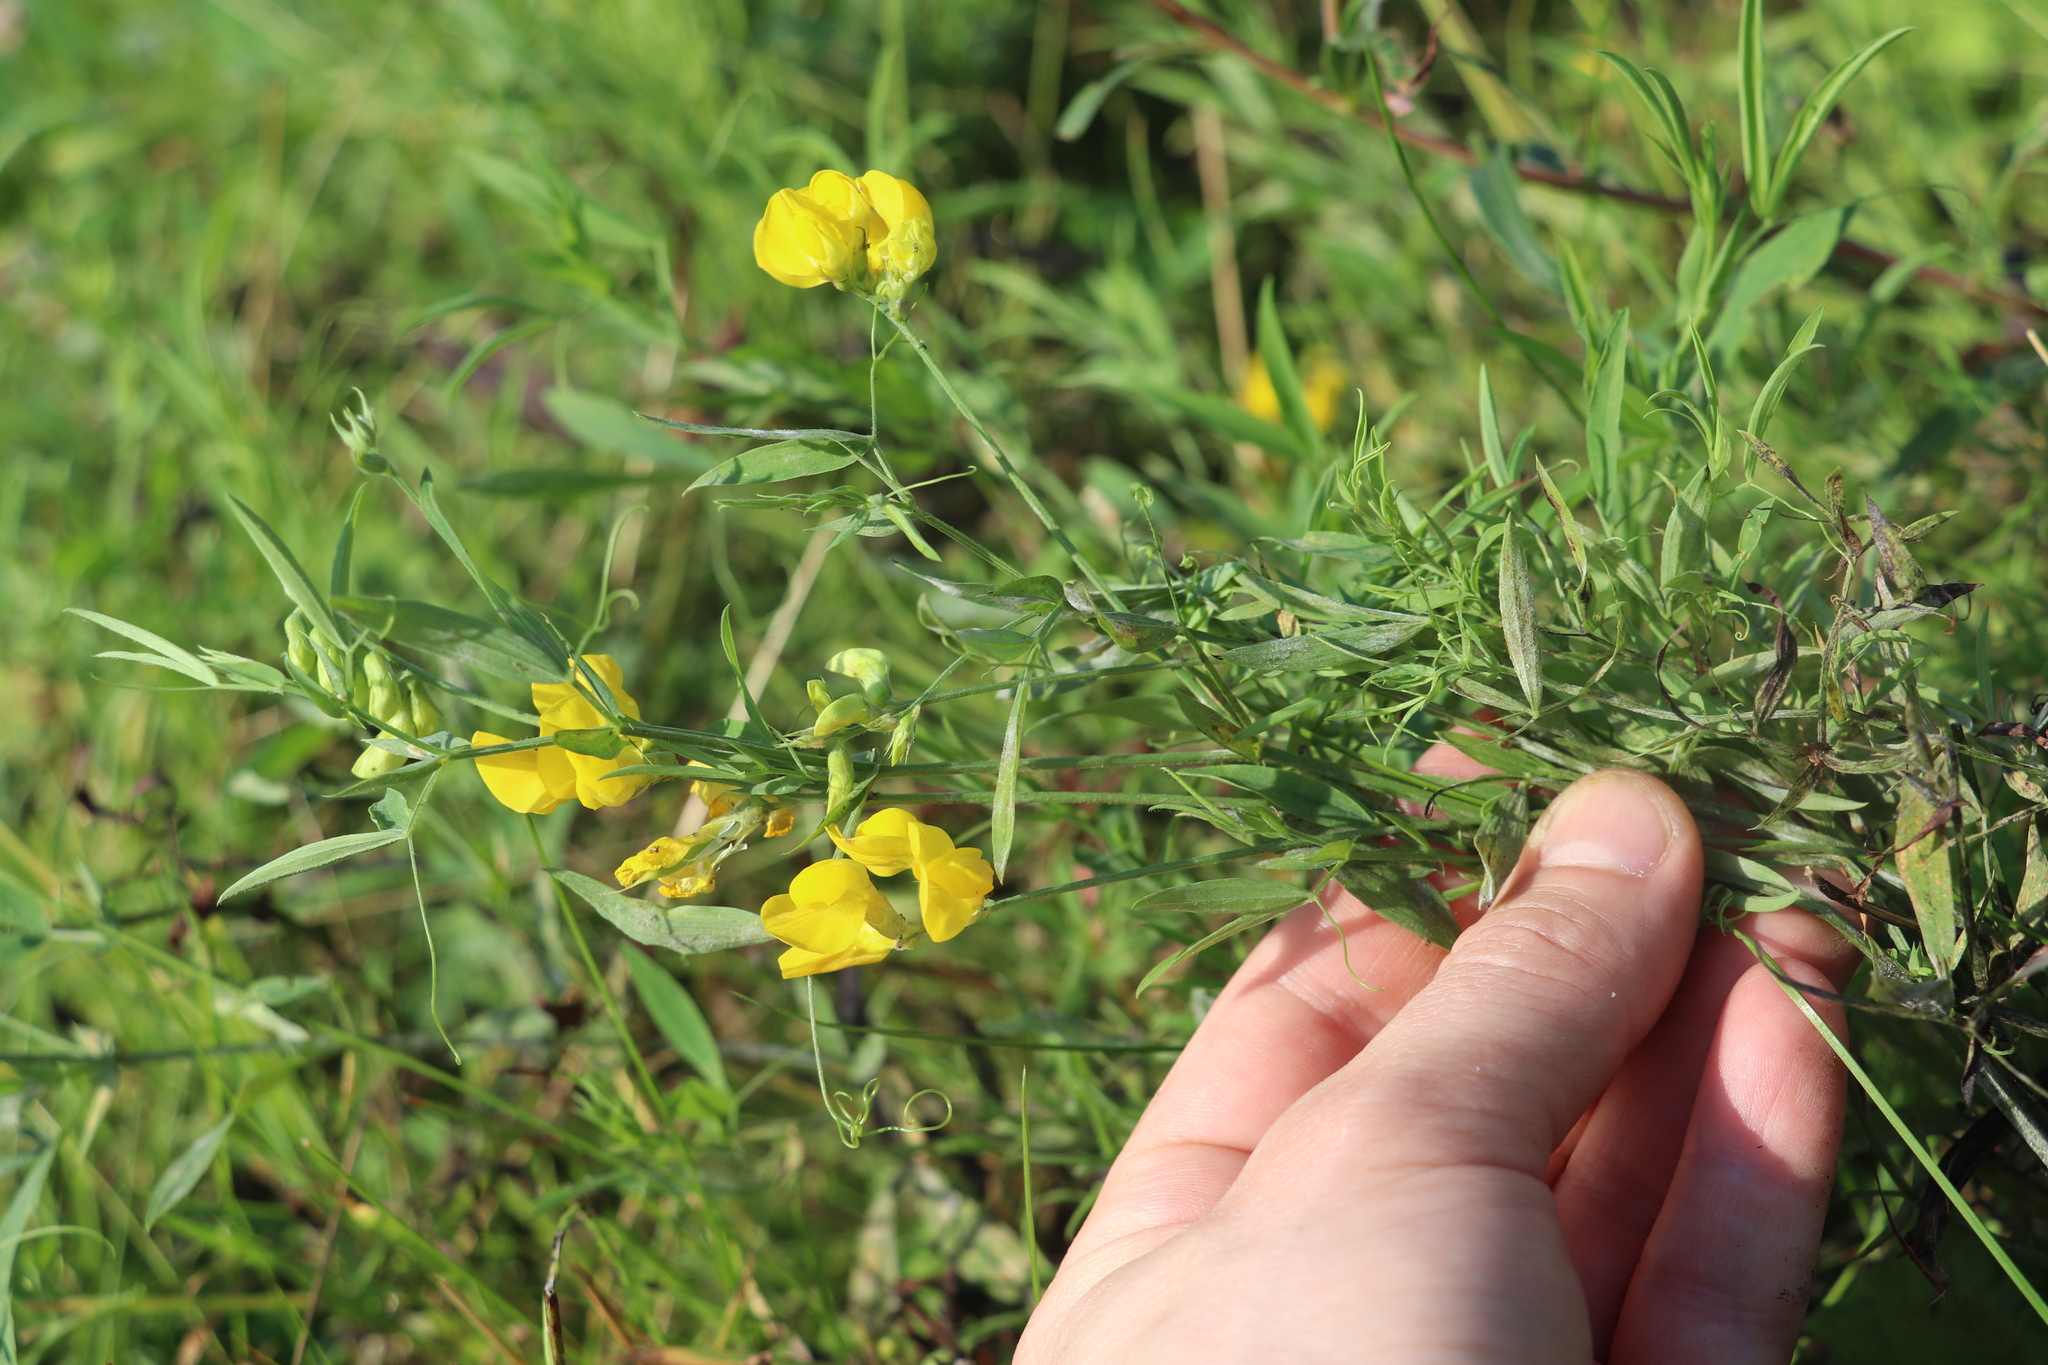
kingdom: Plantae
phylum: Tracheophyta
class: Magnoliopsida
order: Fabales
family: Fabaceae
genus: Lathyrus
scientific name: Lathyrus pratensis
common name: Meadow vetchling
